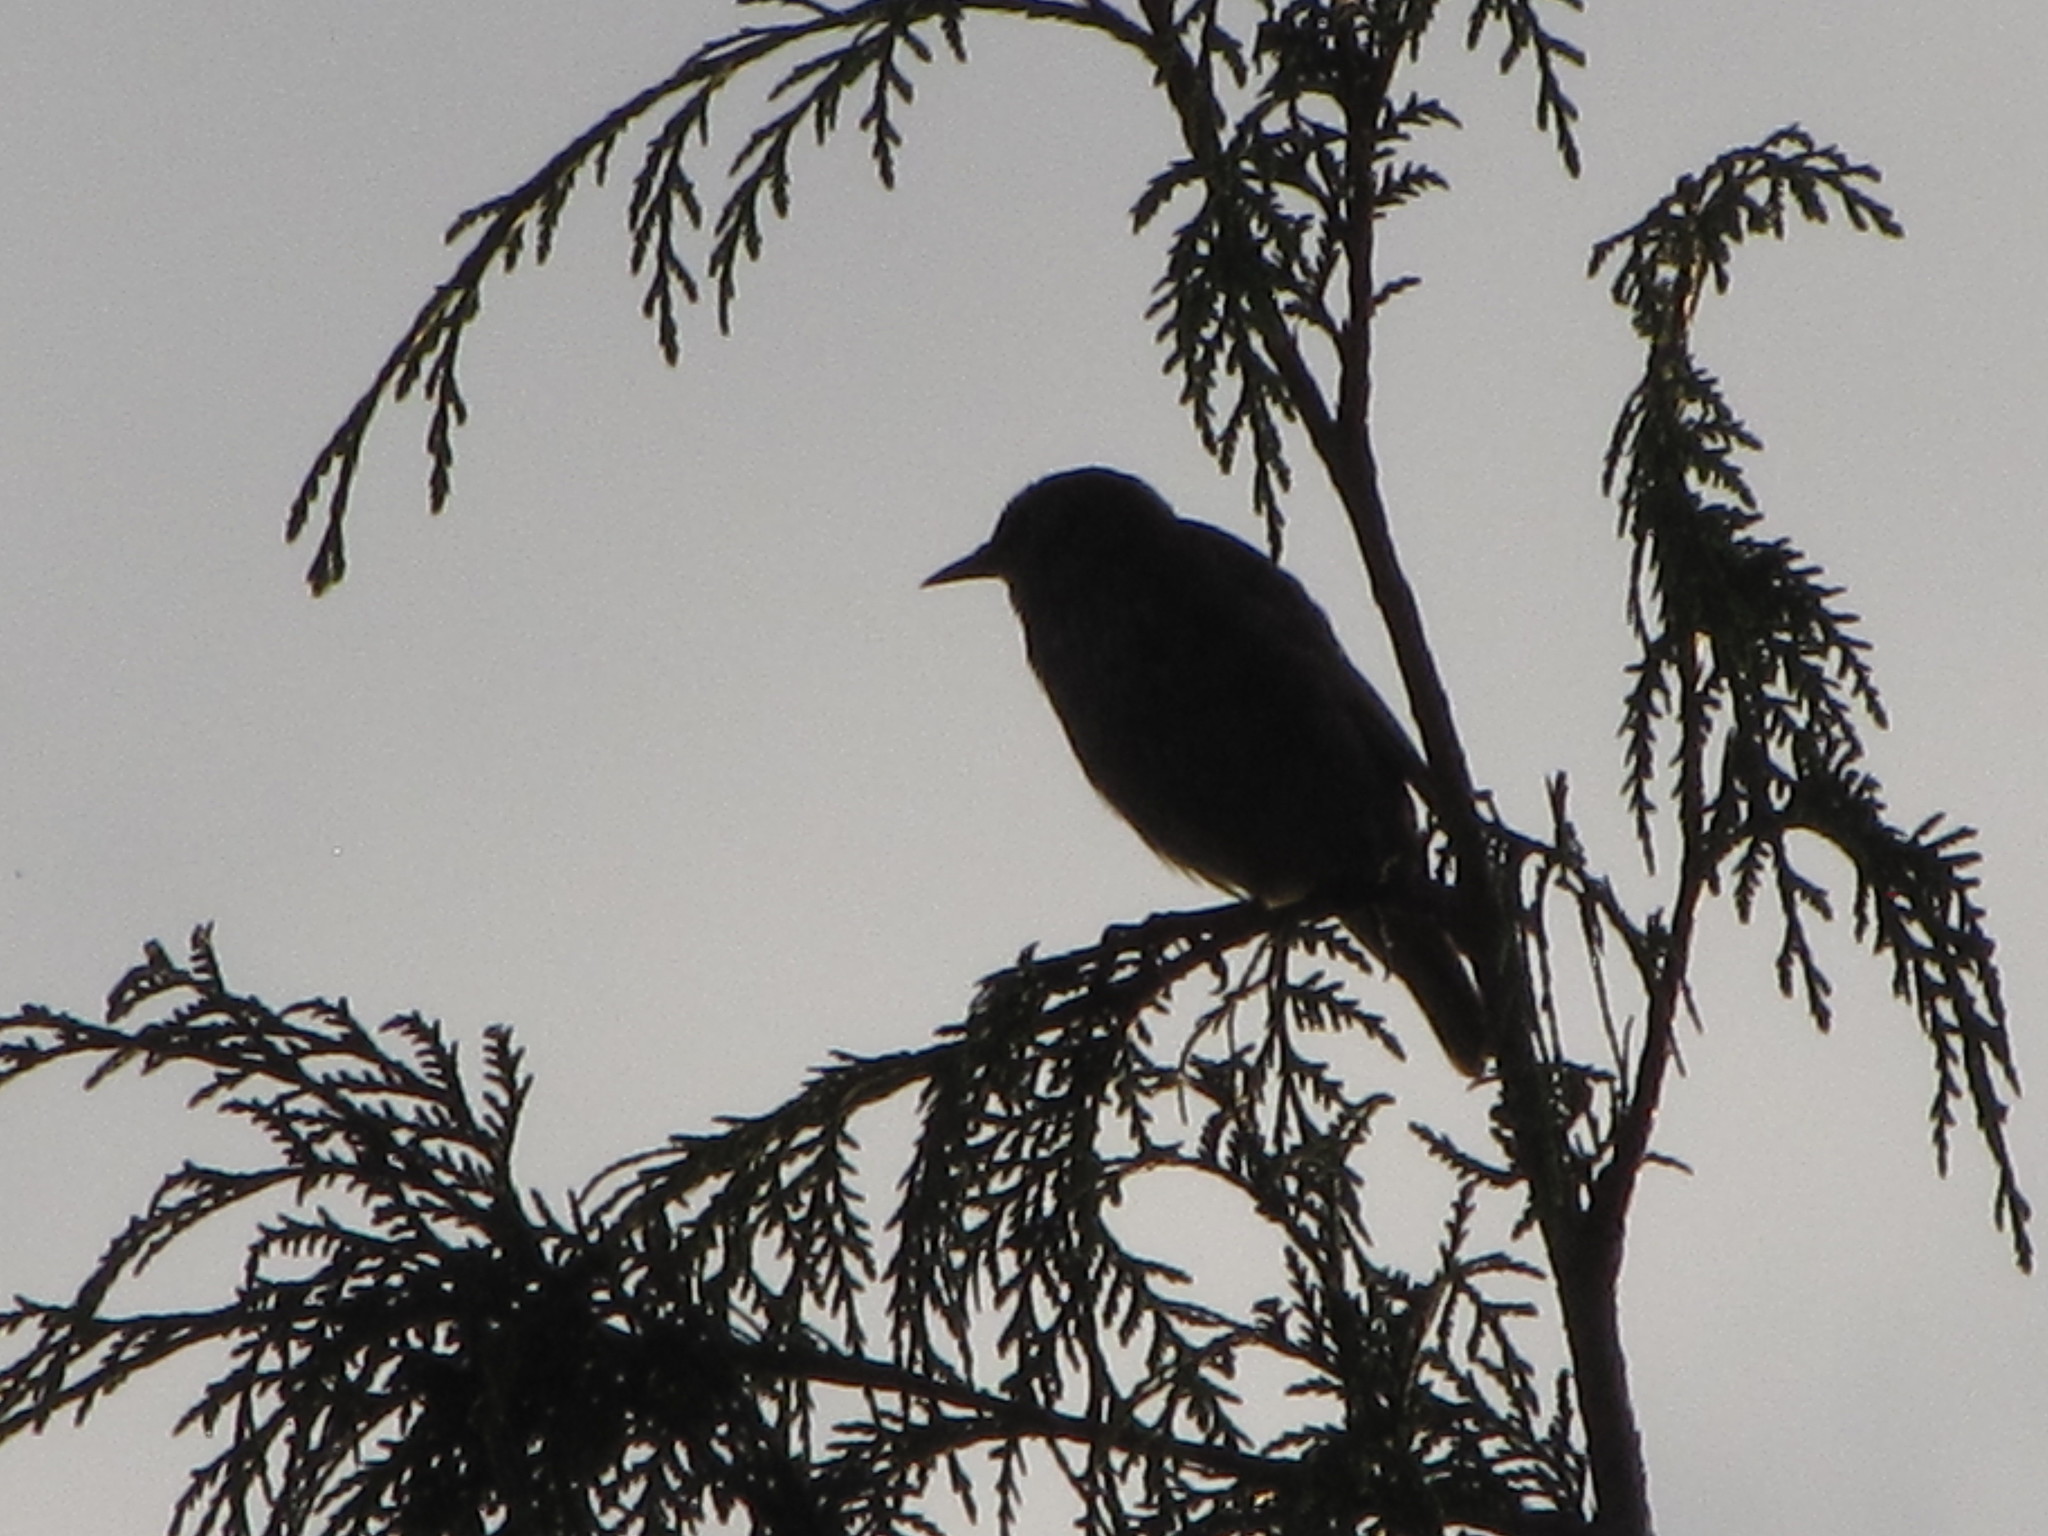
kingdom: Animalia
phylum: Chordata
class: Aves
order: Passeriformes
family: Sturnidae
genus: Sturnus
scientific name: Sturnus vulgaris
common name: Common starling
